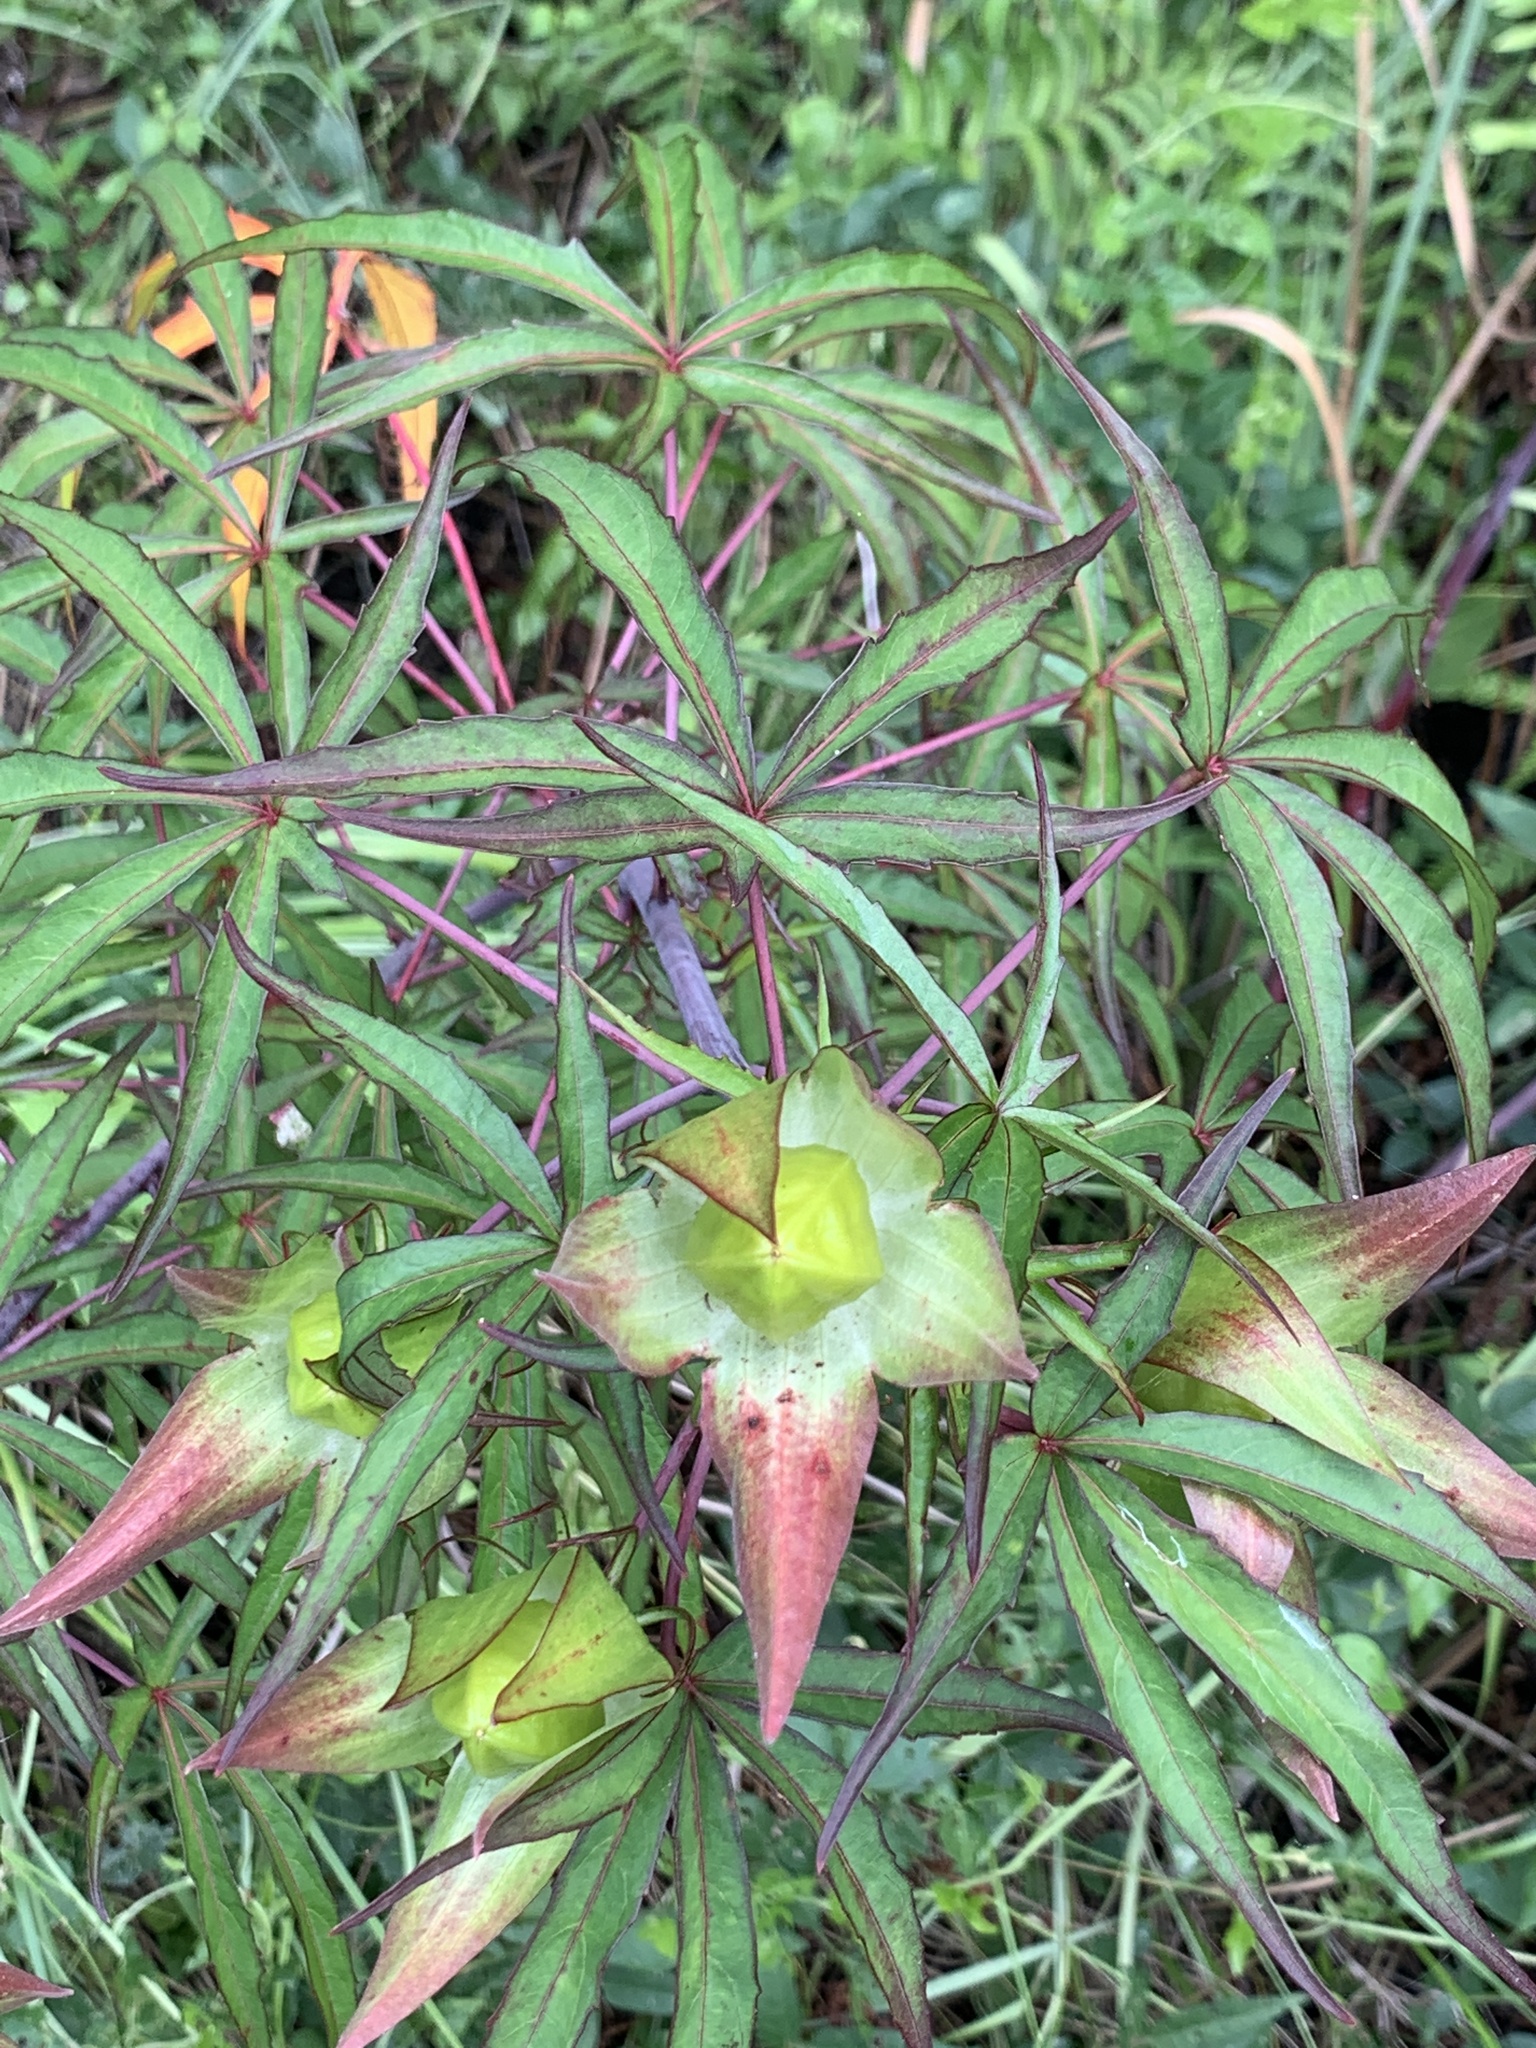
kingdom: Plantae
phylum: Tracheophyta
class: Magnoliopsida
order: Malvales
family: Malvaceae
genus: Hibiscus
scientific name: Hibiscus coccineus
